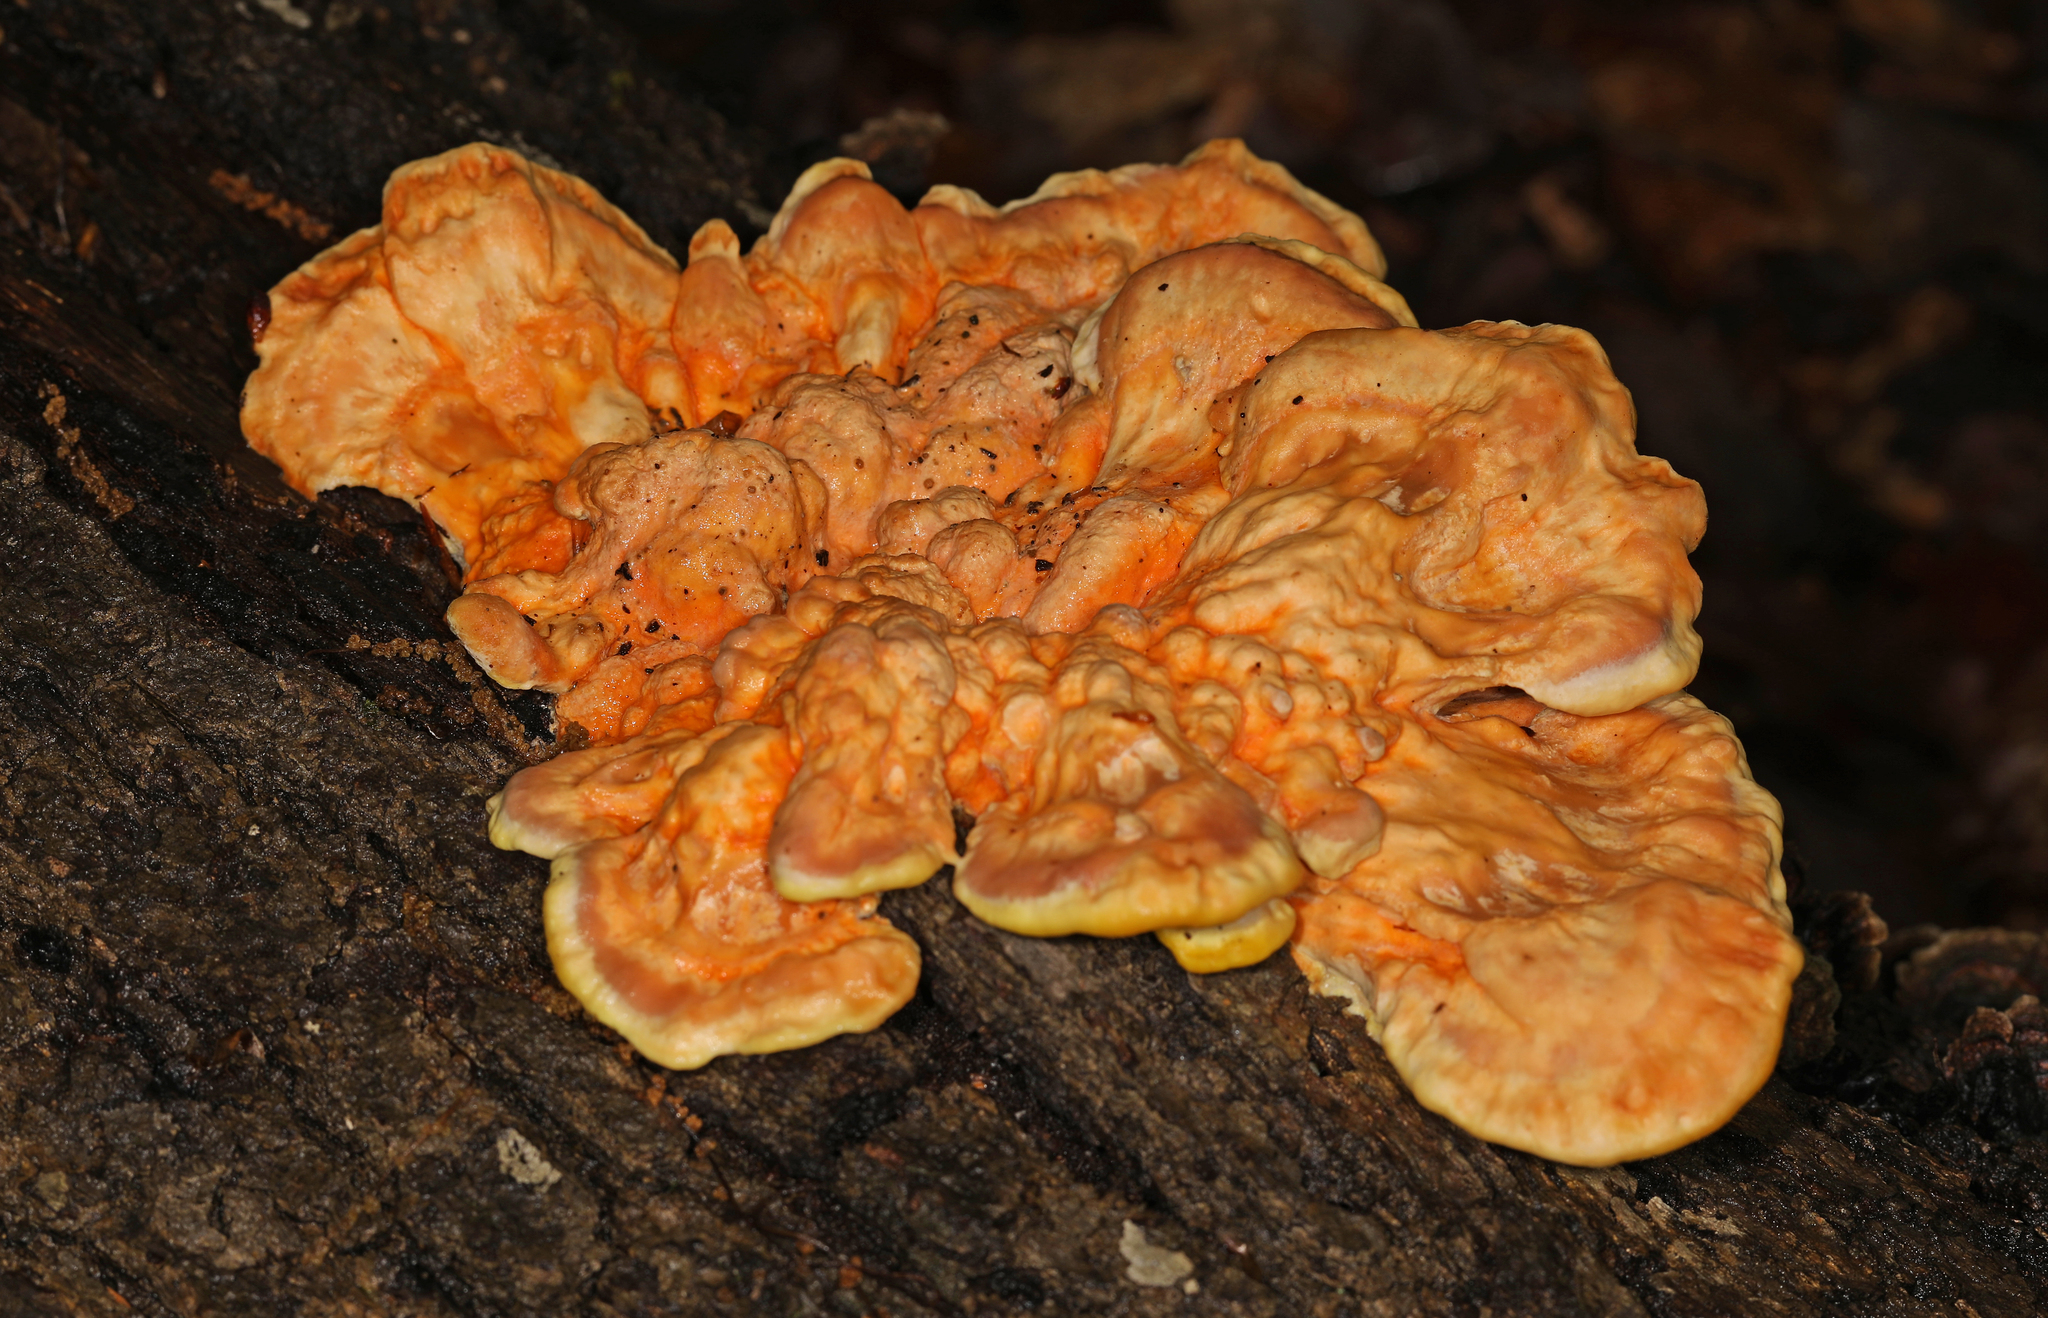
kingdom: Fungi
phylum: Basidiomycota
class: Agaricomycetes
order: Polyporales
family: Laetiporaceae
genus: Laetiporus
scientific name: Laetiporus sulphureus
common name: Chicken of the woods
